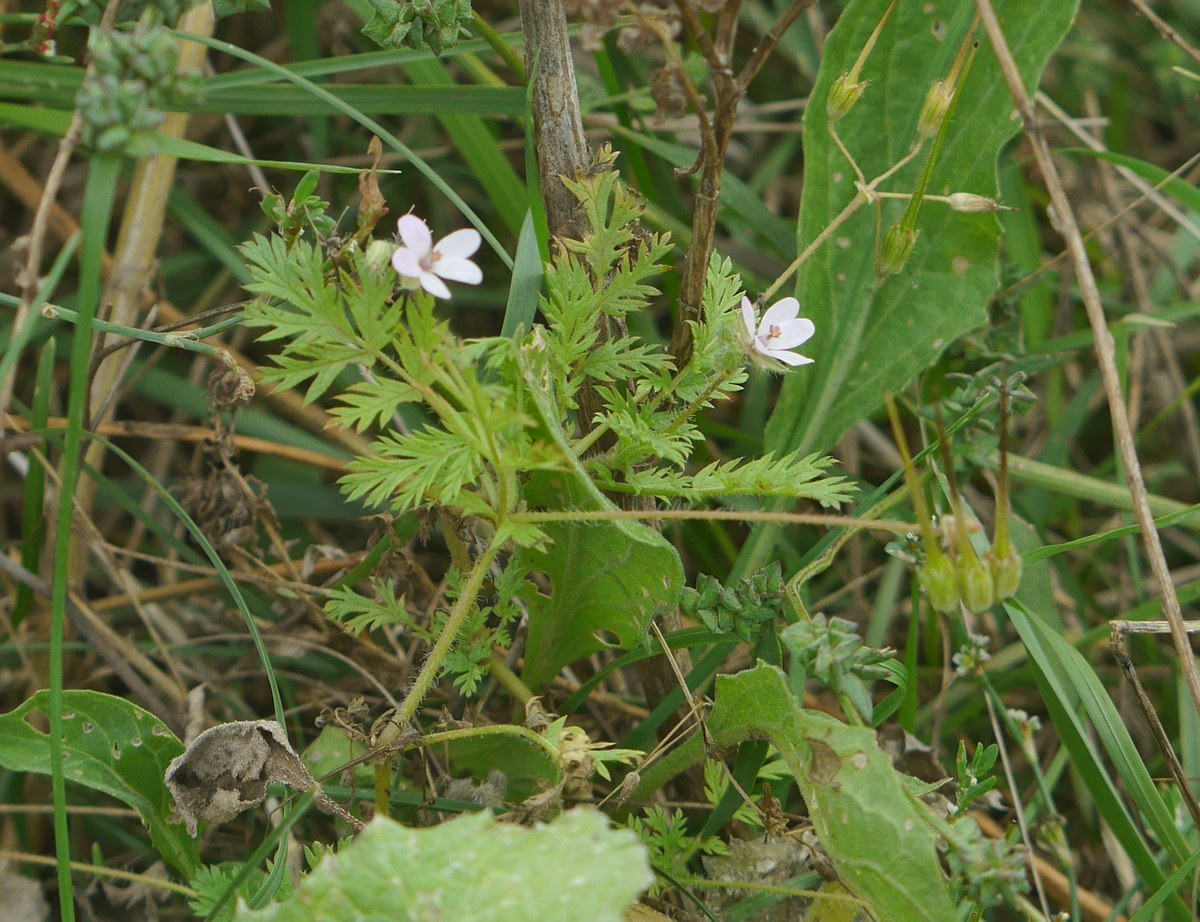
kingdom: Plantae
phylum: Tracheophyta
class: Magnoliopsida
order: Geraniales
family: Geraniaceae
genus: Erodium
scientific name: Erodium cicutarium
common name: Common stork's-bill
